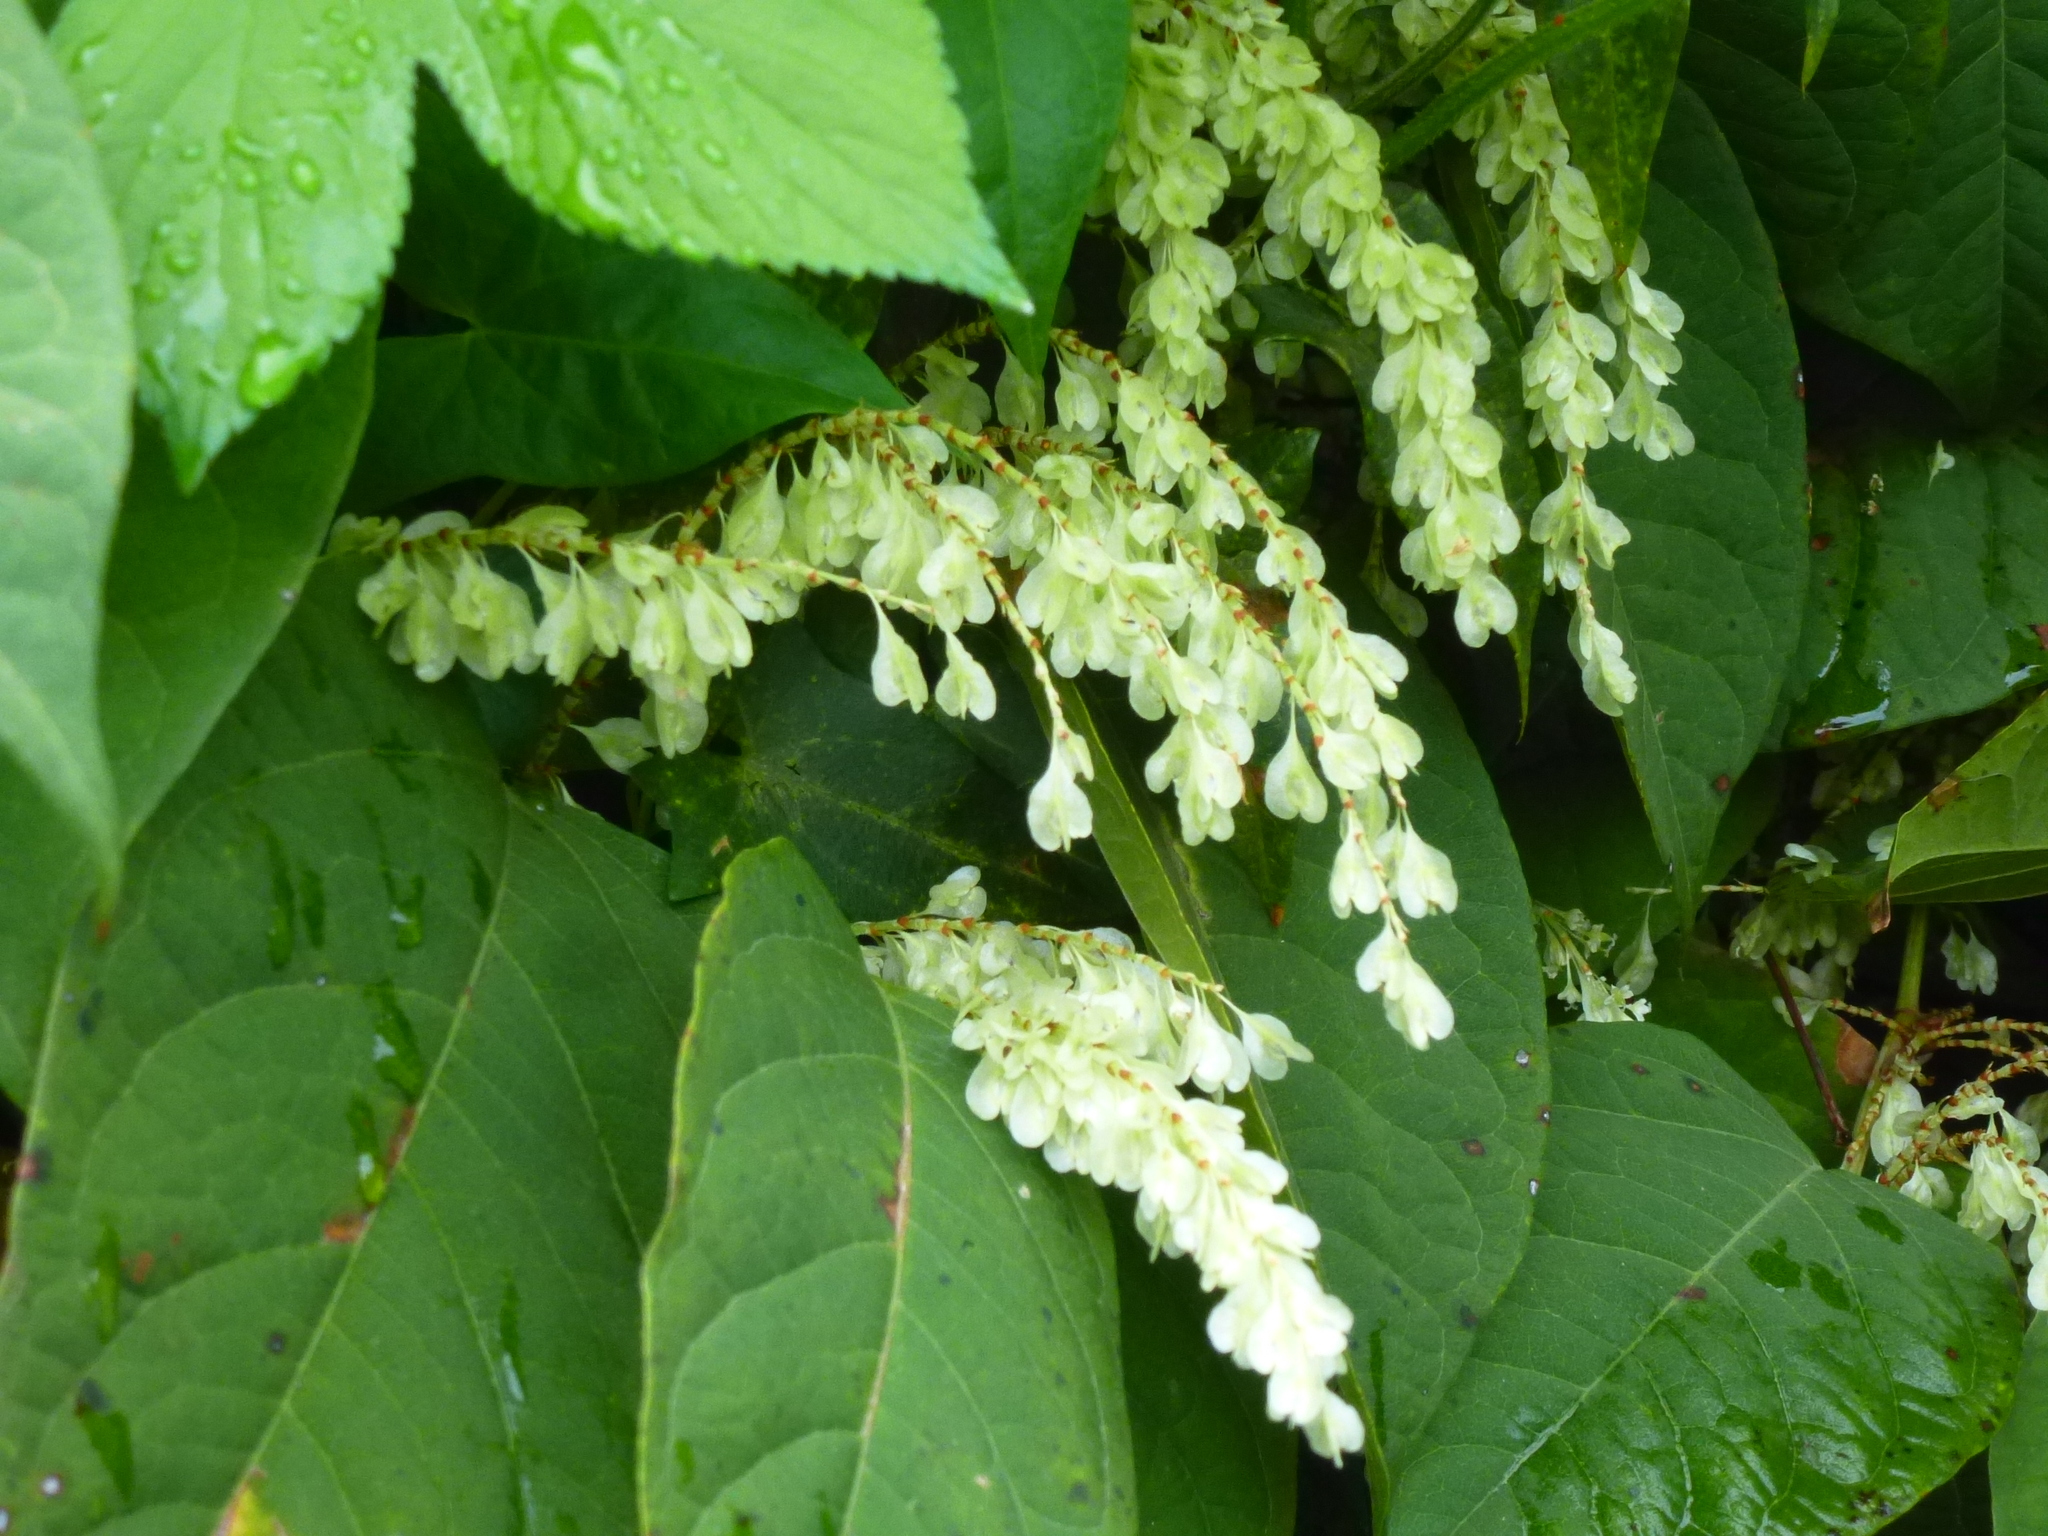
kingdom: Plantae
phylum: Tracheophyta
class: Magnoliopsida
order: Caryophyllales
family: Polygonaceae
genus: Reynoutria
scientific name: Reynoutria japonica
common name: Japanese knotweed
